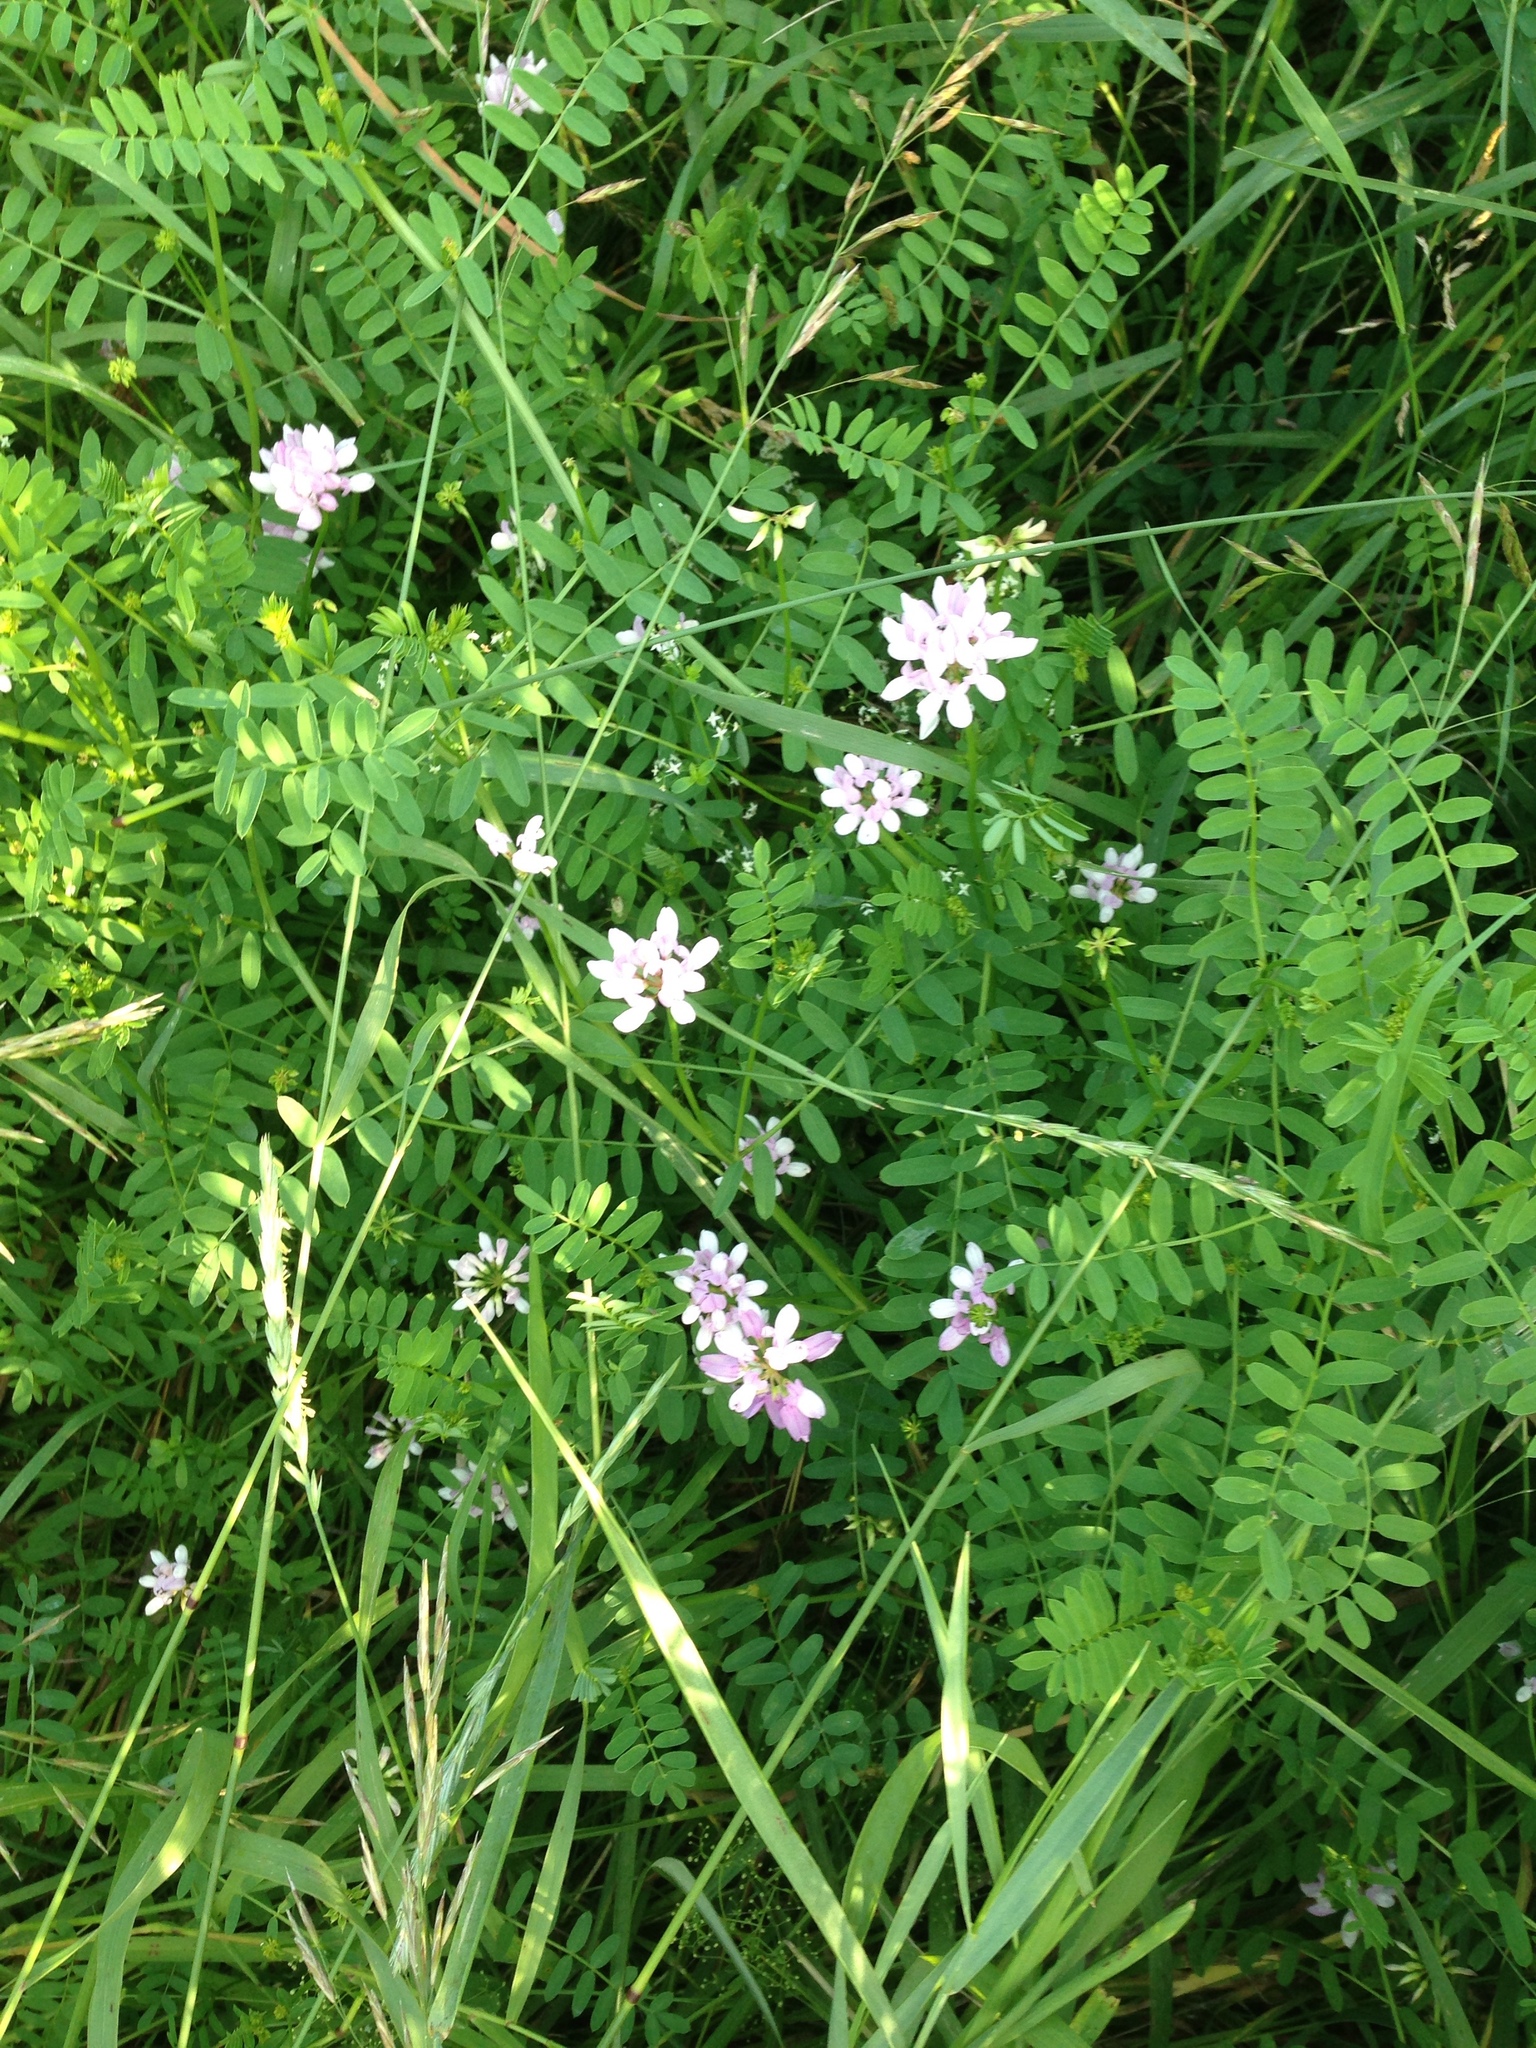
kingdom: Plantae
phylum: Tracheophyta
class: Magnoliopsida
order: Fabales
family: Fabaceae
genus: Coronilla
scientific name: Coronilla varia
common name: Crownvetch
